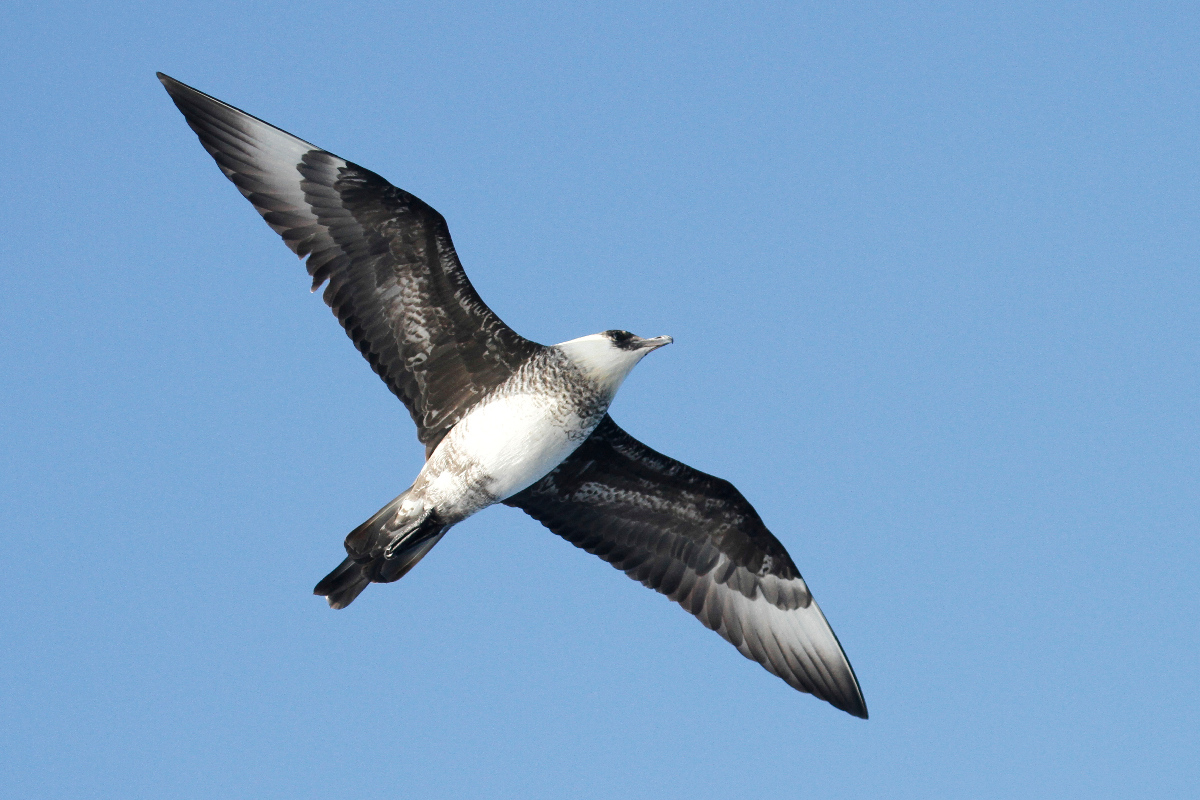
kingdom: Animalia
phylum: Chordata
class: Aves
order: Charadriiformes
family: Stercorariidae
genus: Stercorarius
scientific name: Stercorarius pomarinus
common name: Pomarine jaeger
